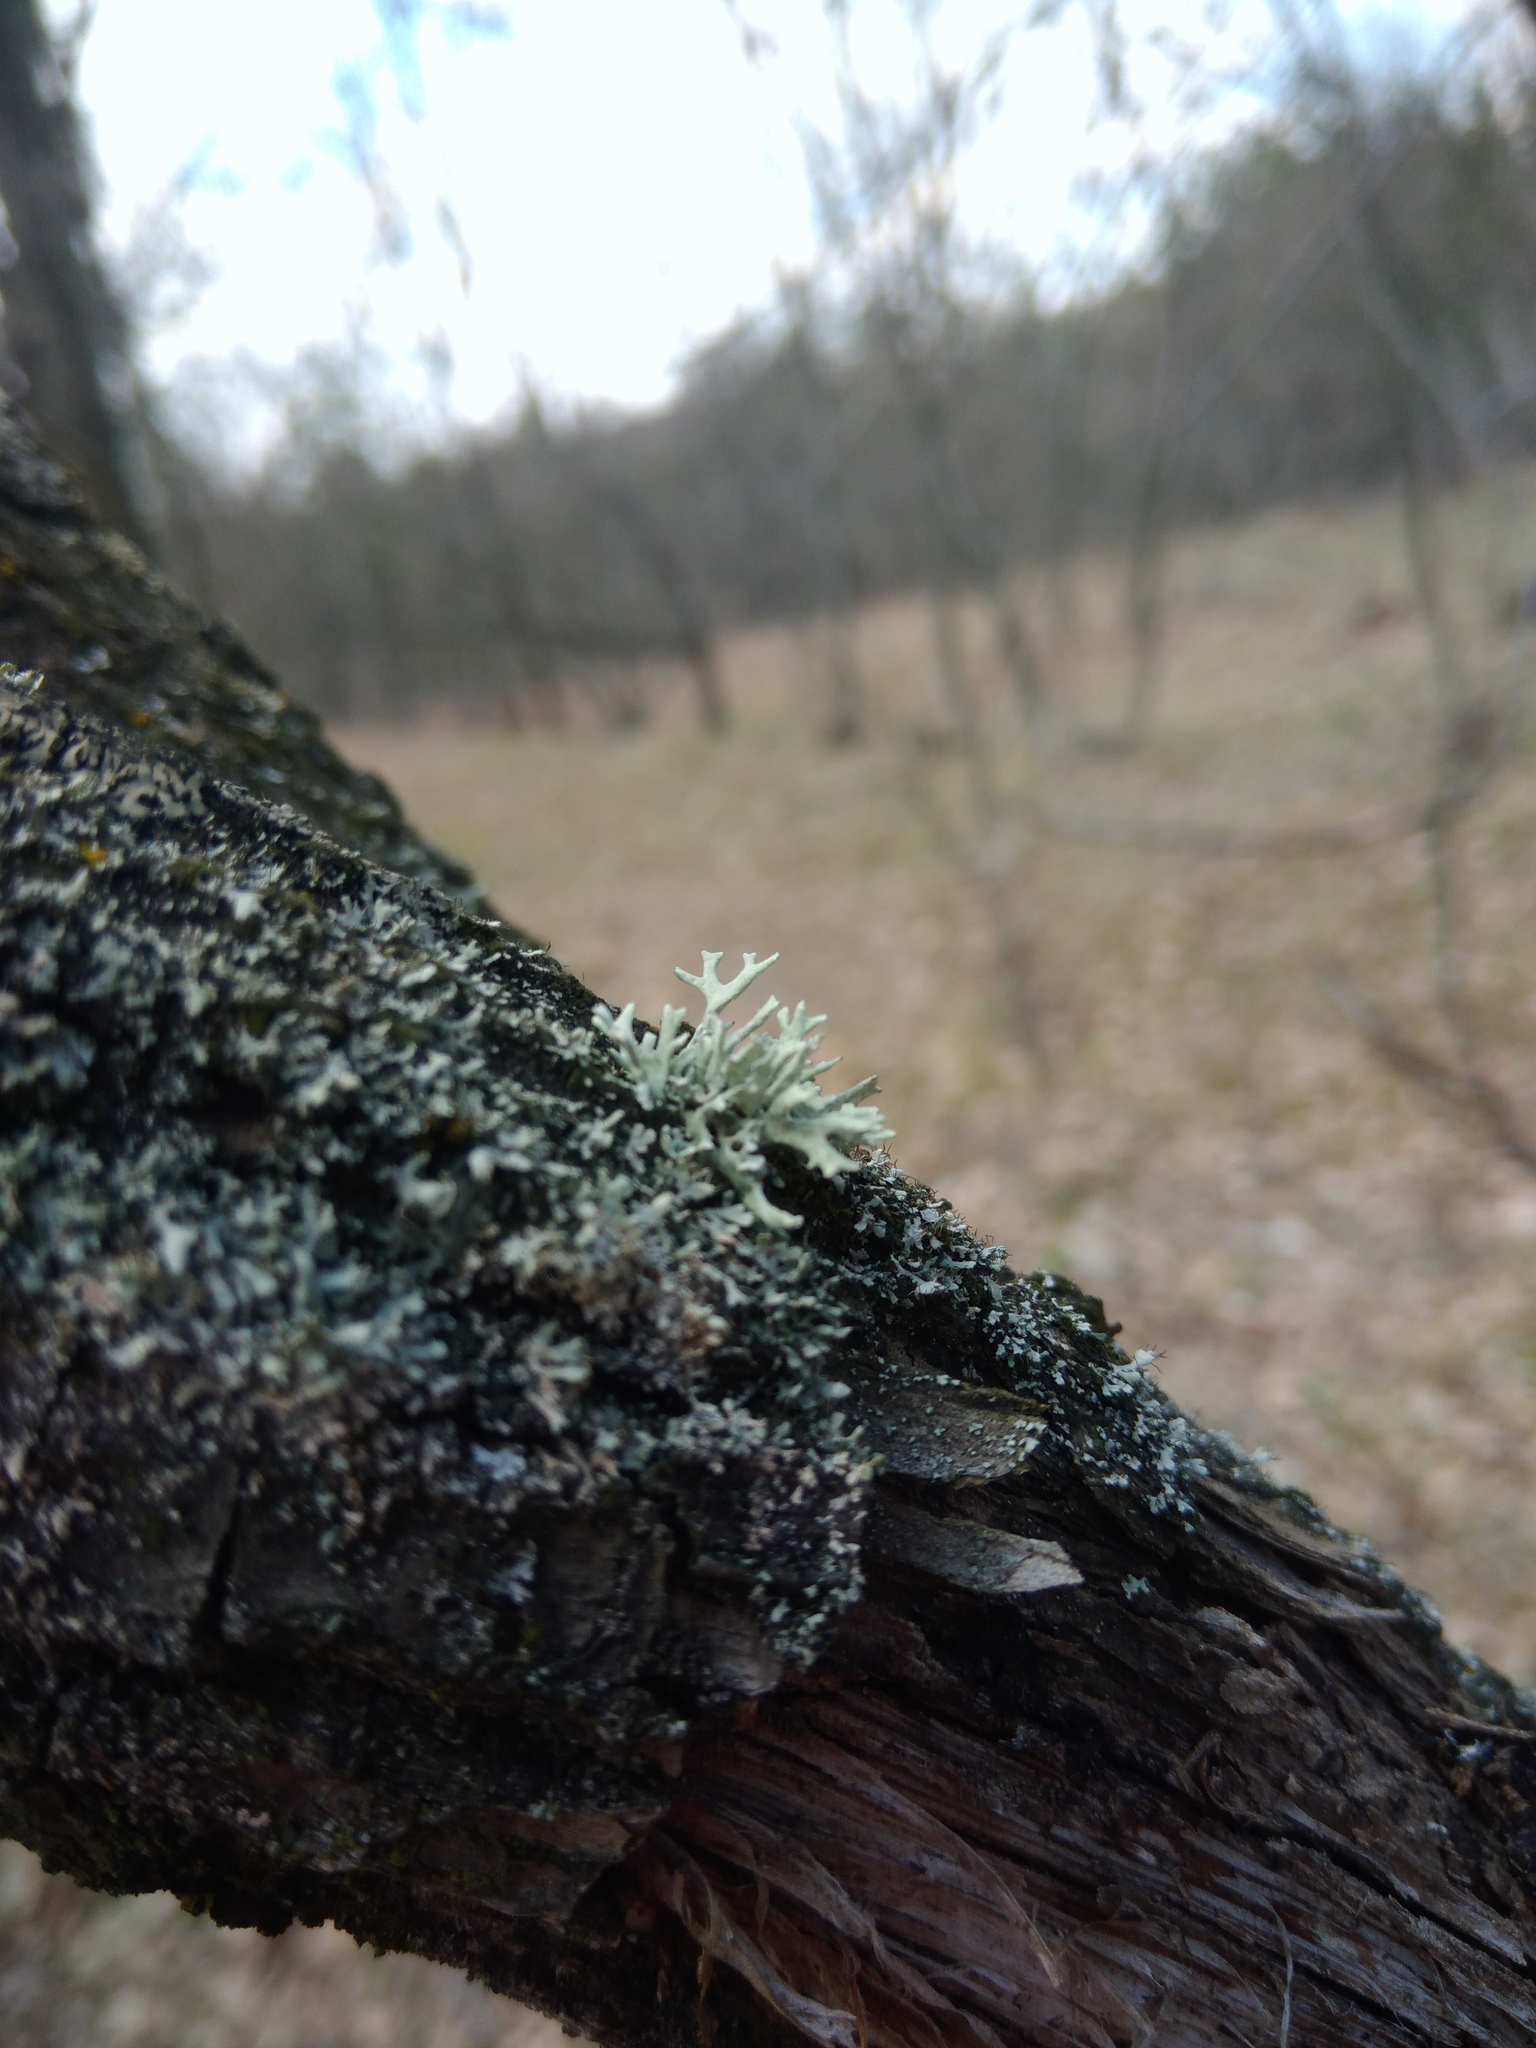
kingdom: Fungi
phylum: Ascomycota
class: Lecanoromycetes
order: Lecanorales
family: Parmeliaceae
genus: Evernia
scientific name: Evernia prunastri
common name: Oak moss
